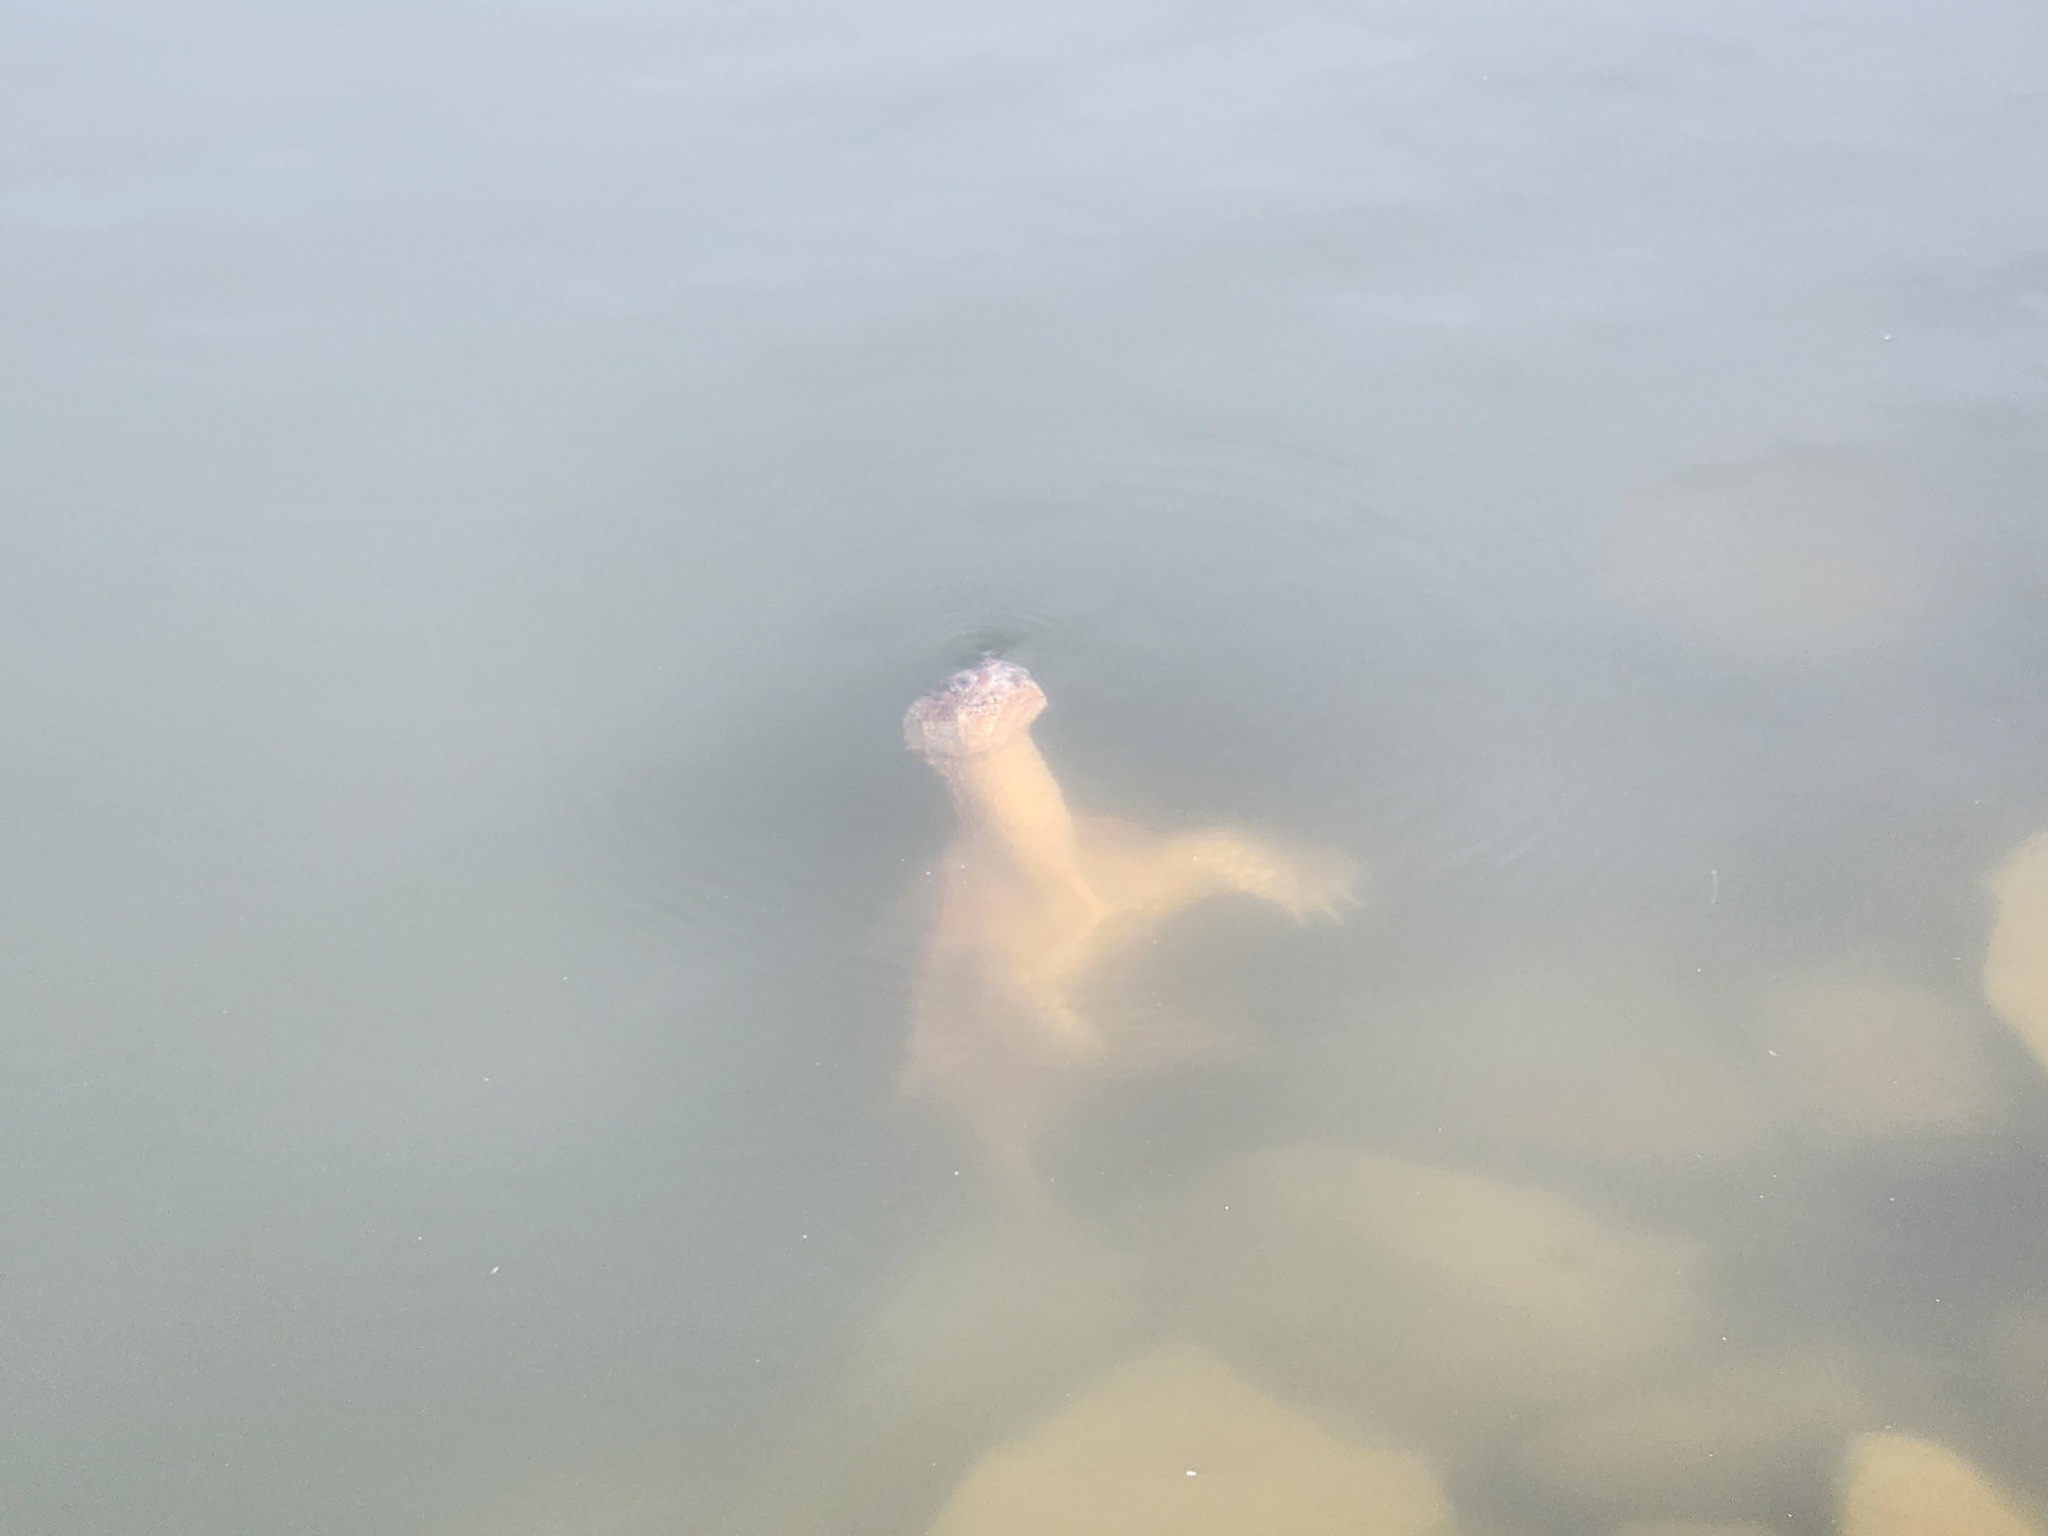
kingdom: Animalia
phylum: Chordata
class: Testudines
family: Chelydridae
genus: Chelydra
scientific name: Chelydra serpentina
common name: Common snapping turtle
